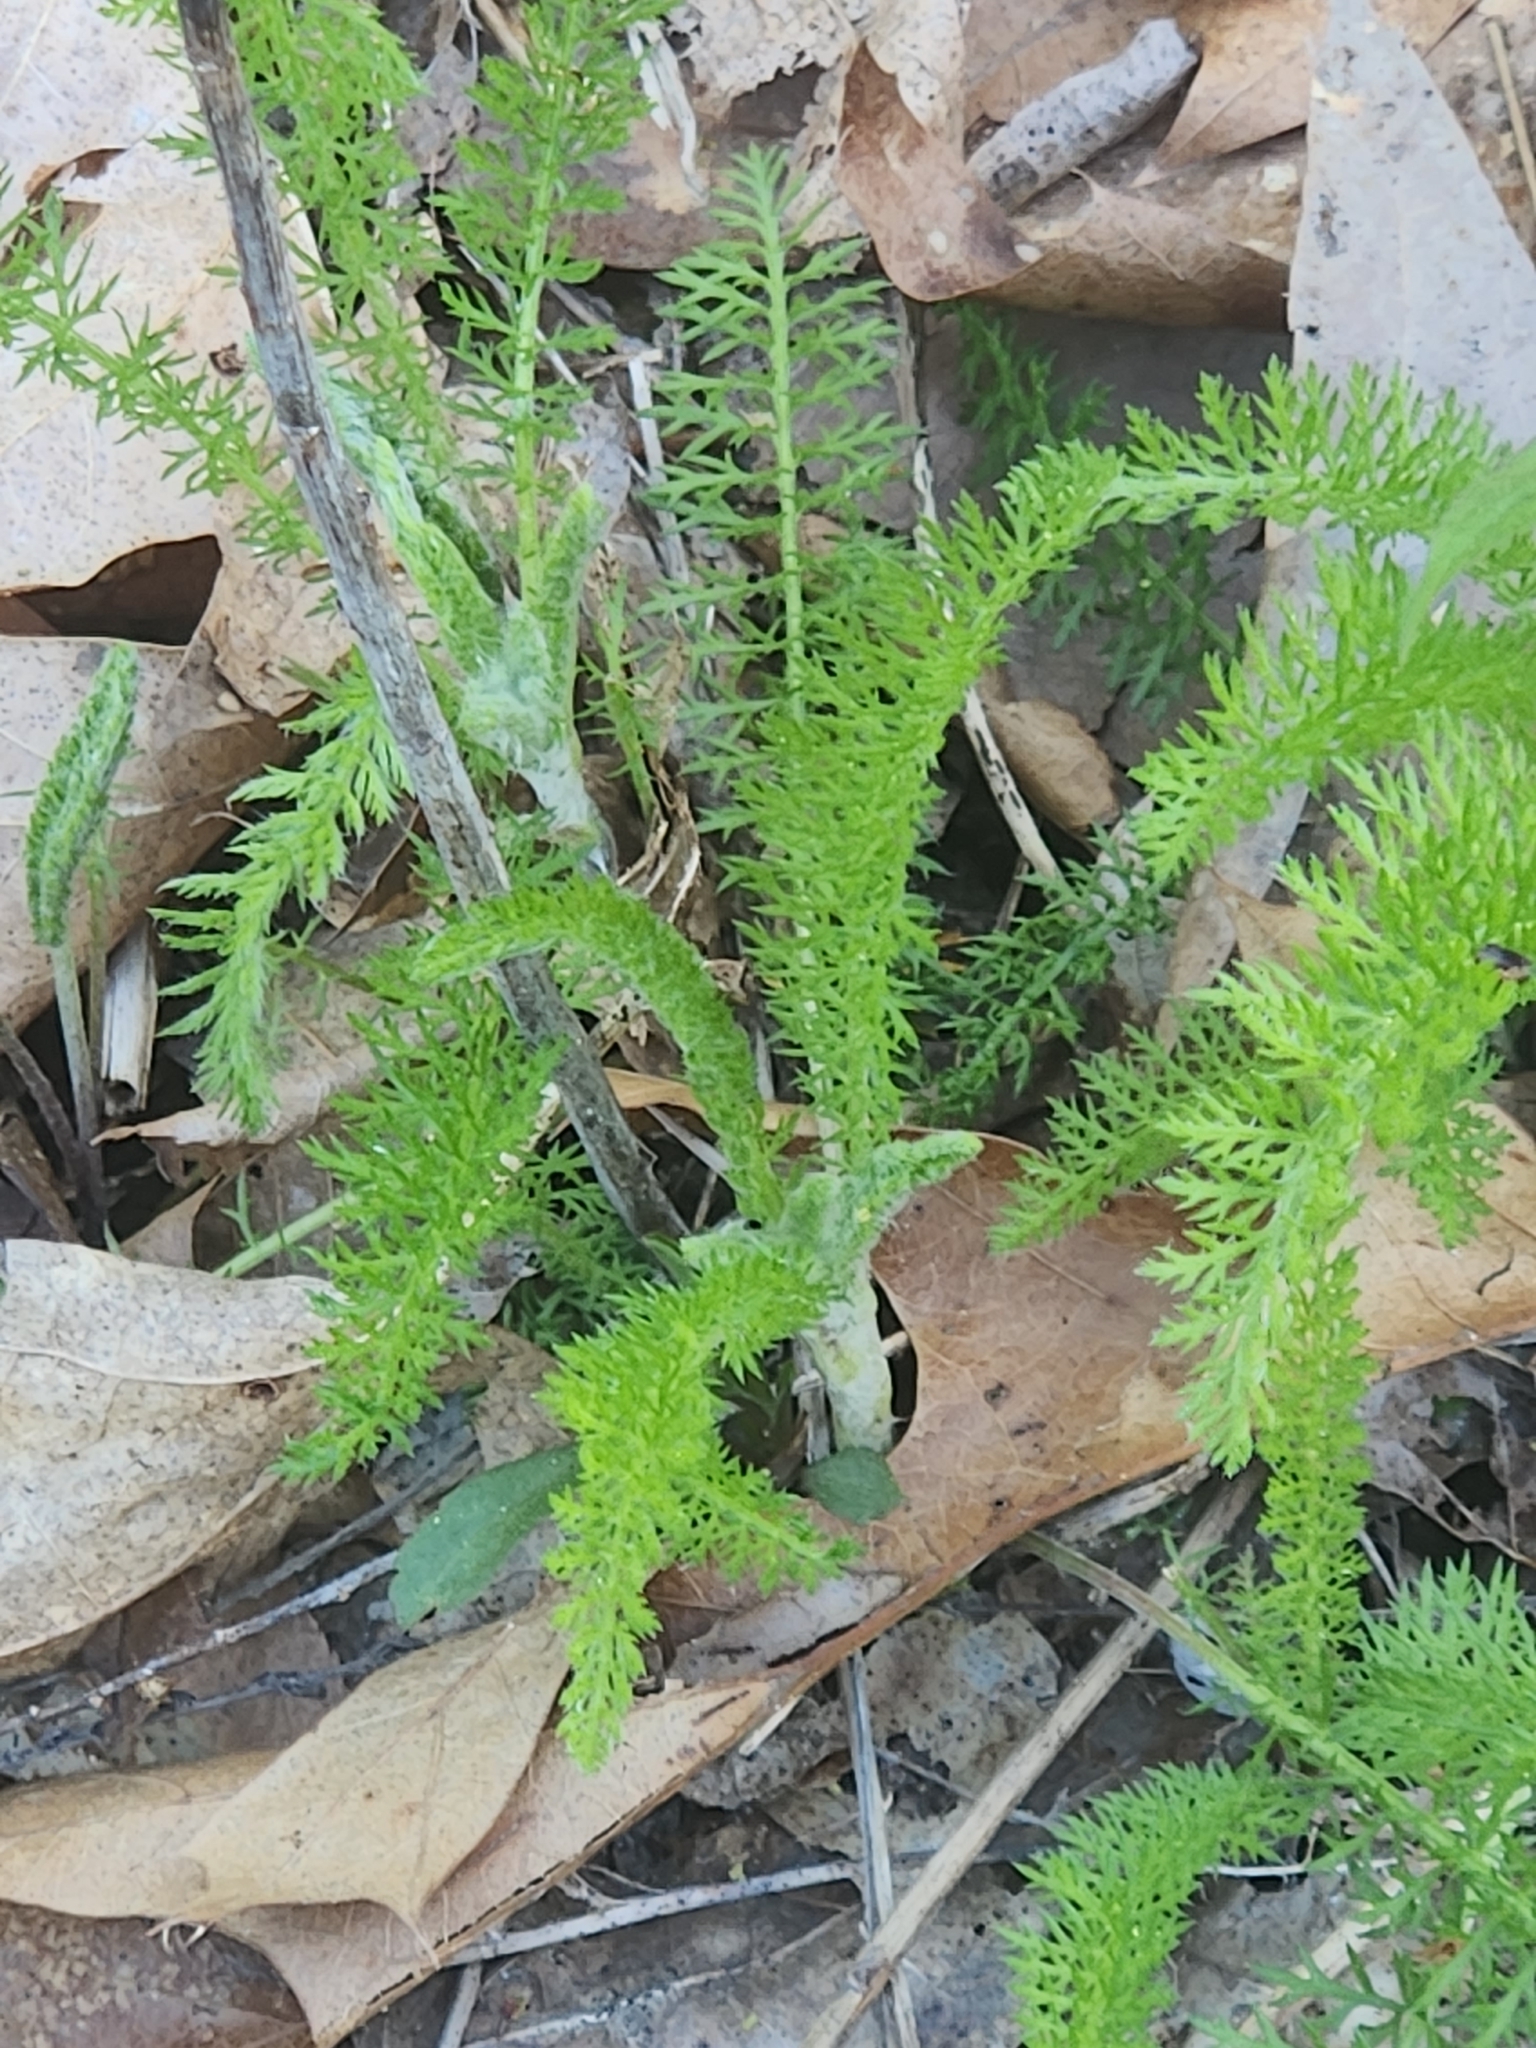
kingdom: Plantae
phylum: Tracheophyta
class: Magnoliopsida
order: Asterales
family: Asteraceae
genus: Achillea
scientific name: Achillea millefolium
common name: Yarrow
